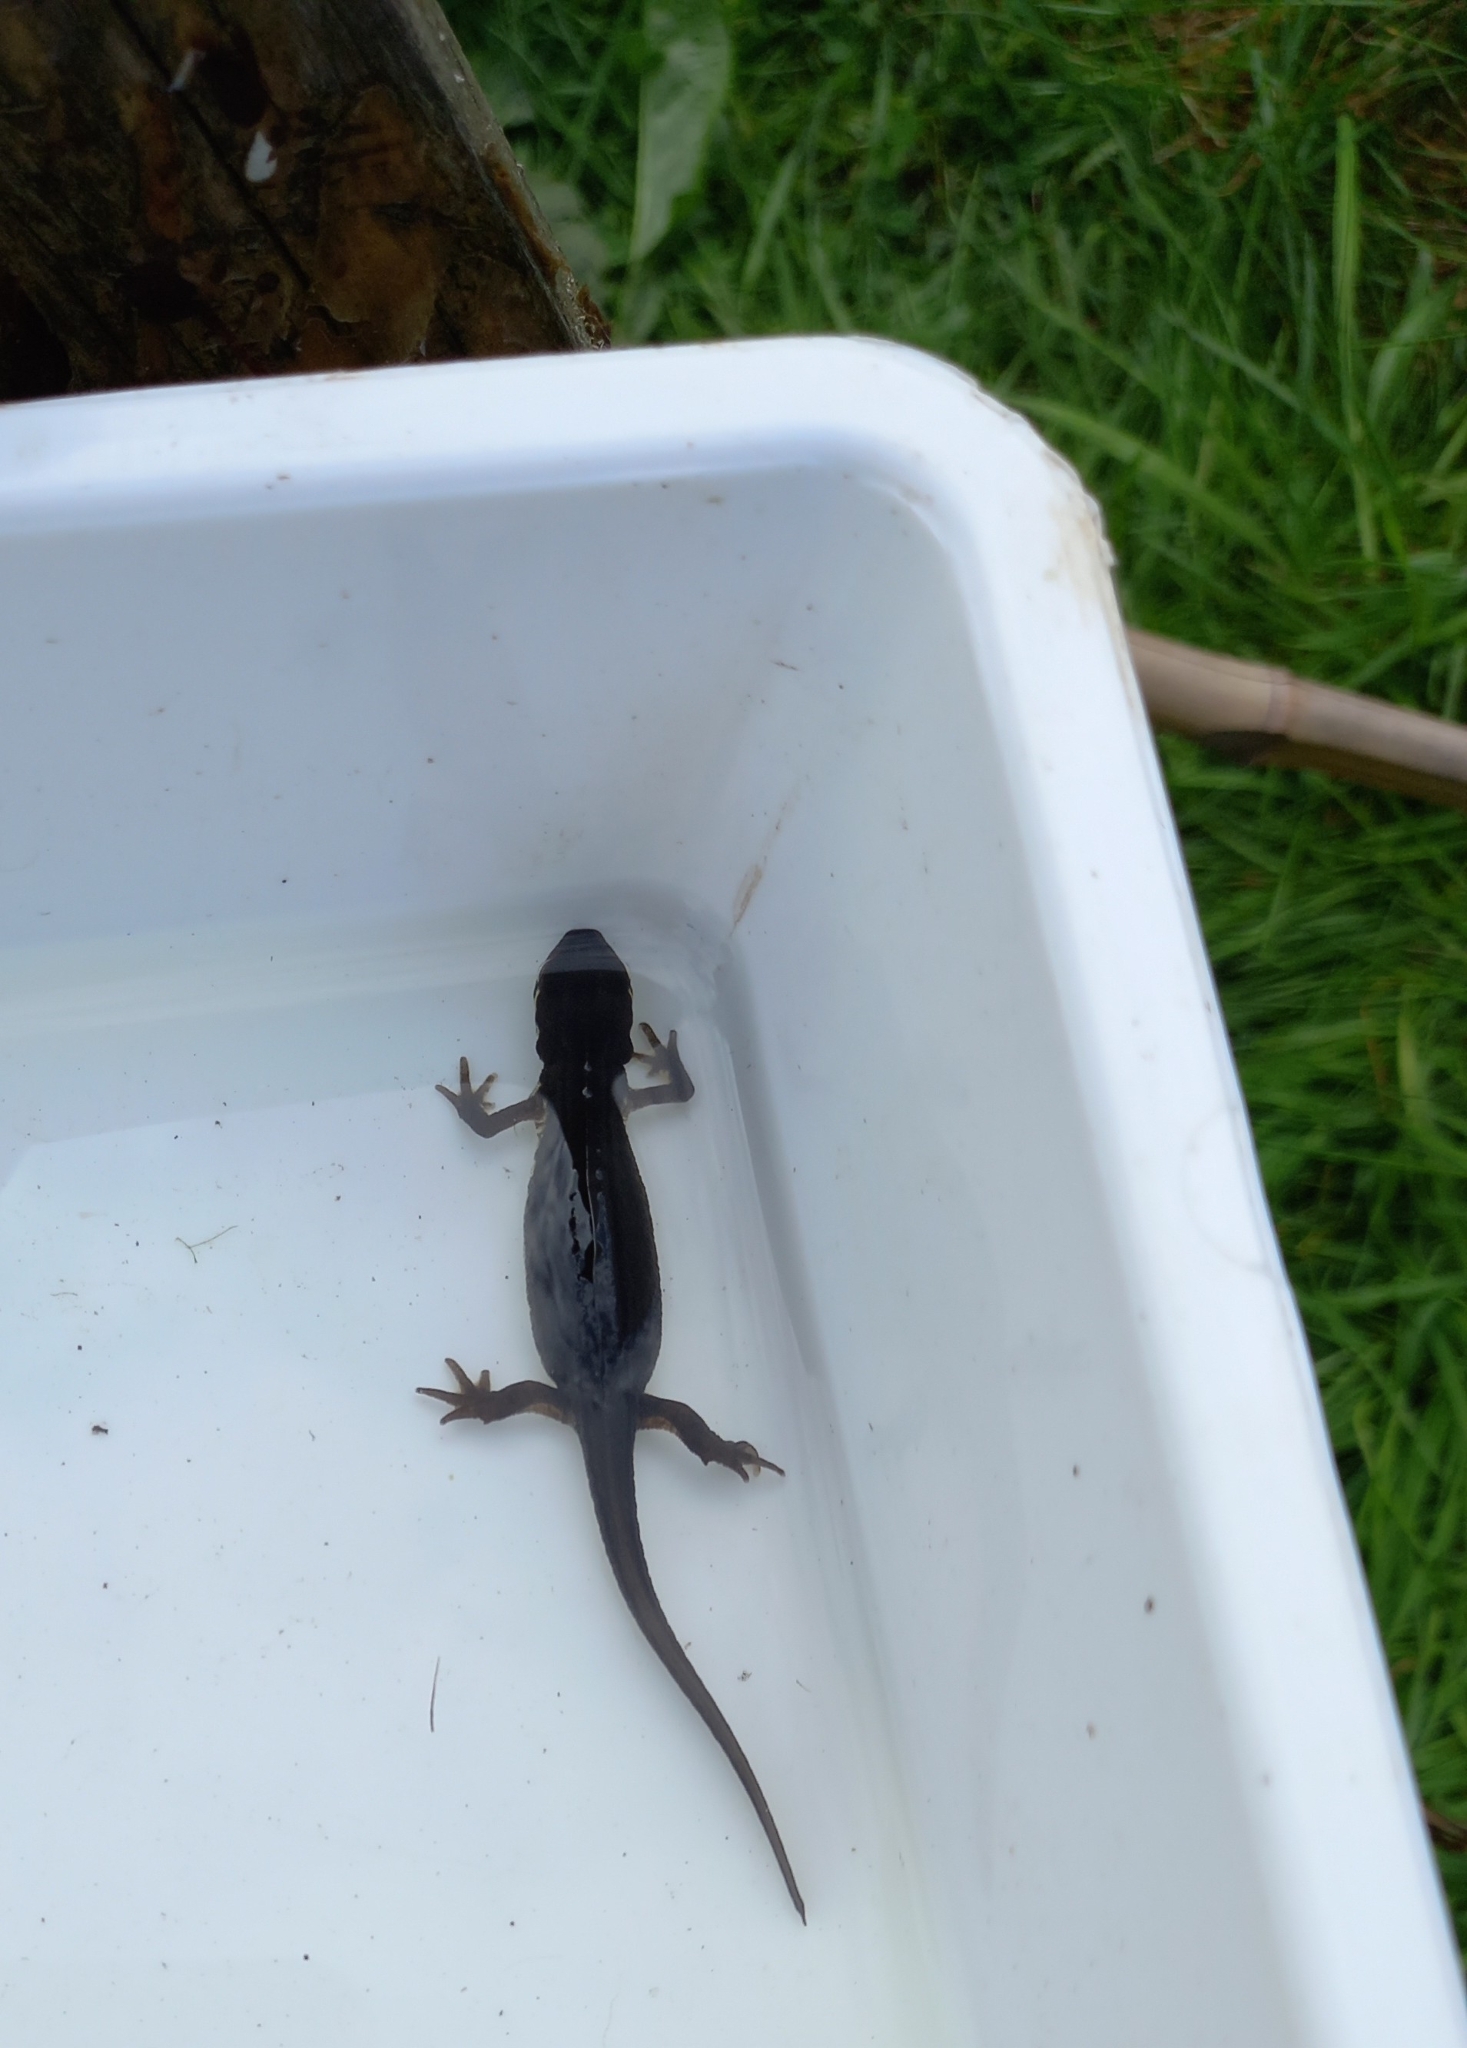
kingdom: Animalia
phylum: Chordata
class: Amphibia
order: Caudata
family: Salamandridae
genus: Lissotriton
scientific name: Lissotriton vulgaris
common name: Smooth newt
